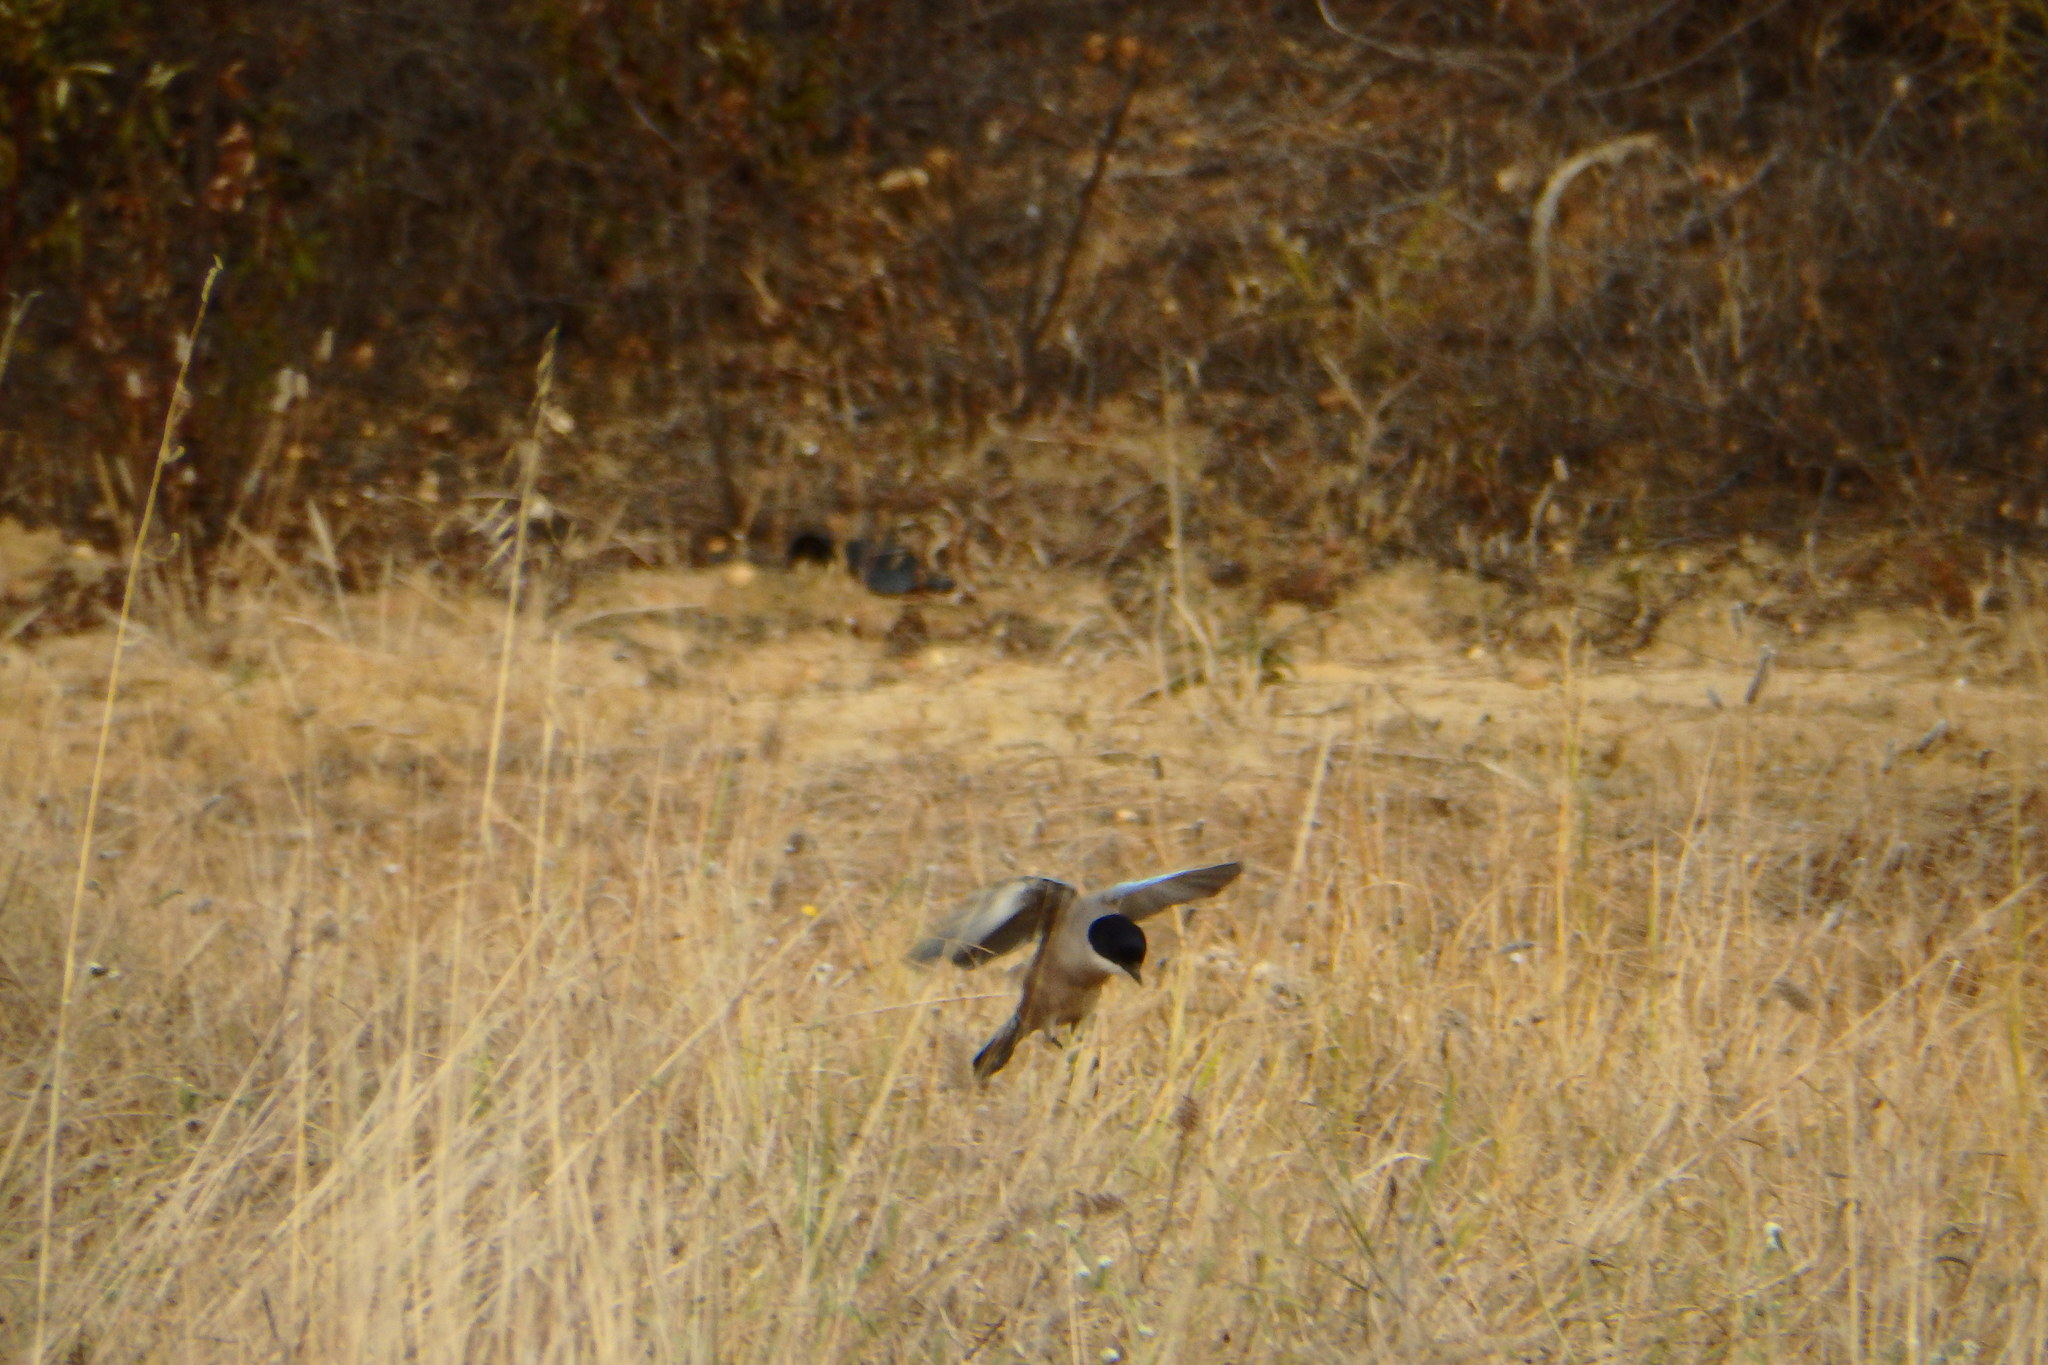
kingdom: Animalia
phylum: Chordata
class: Aves
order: Passeriformes
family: Corvidae
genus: Cyanopica
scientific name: Cyanopica cooki
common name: Iberian magpie
